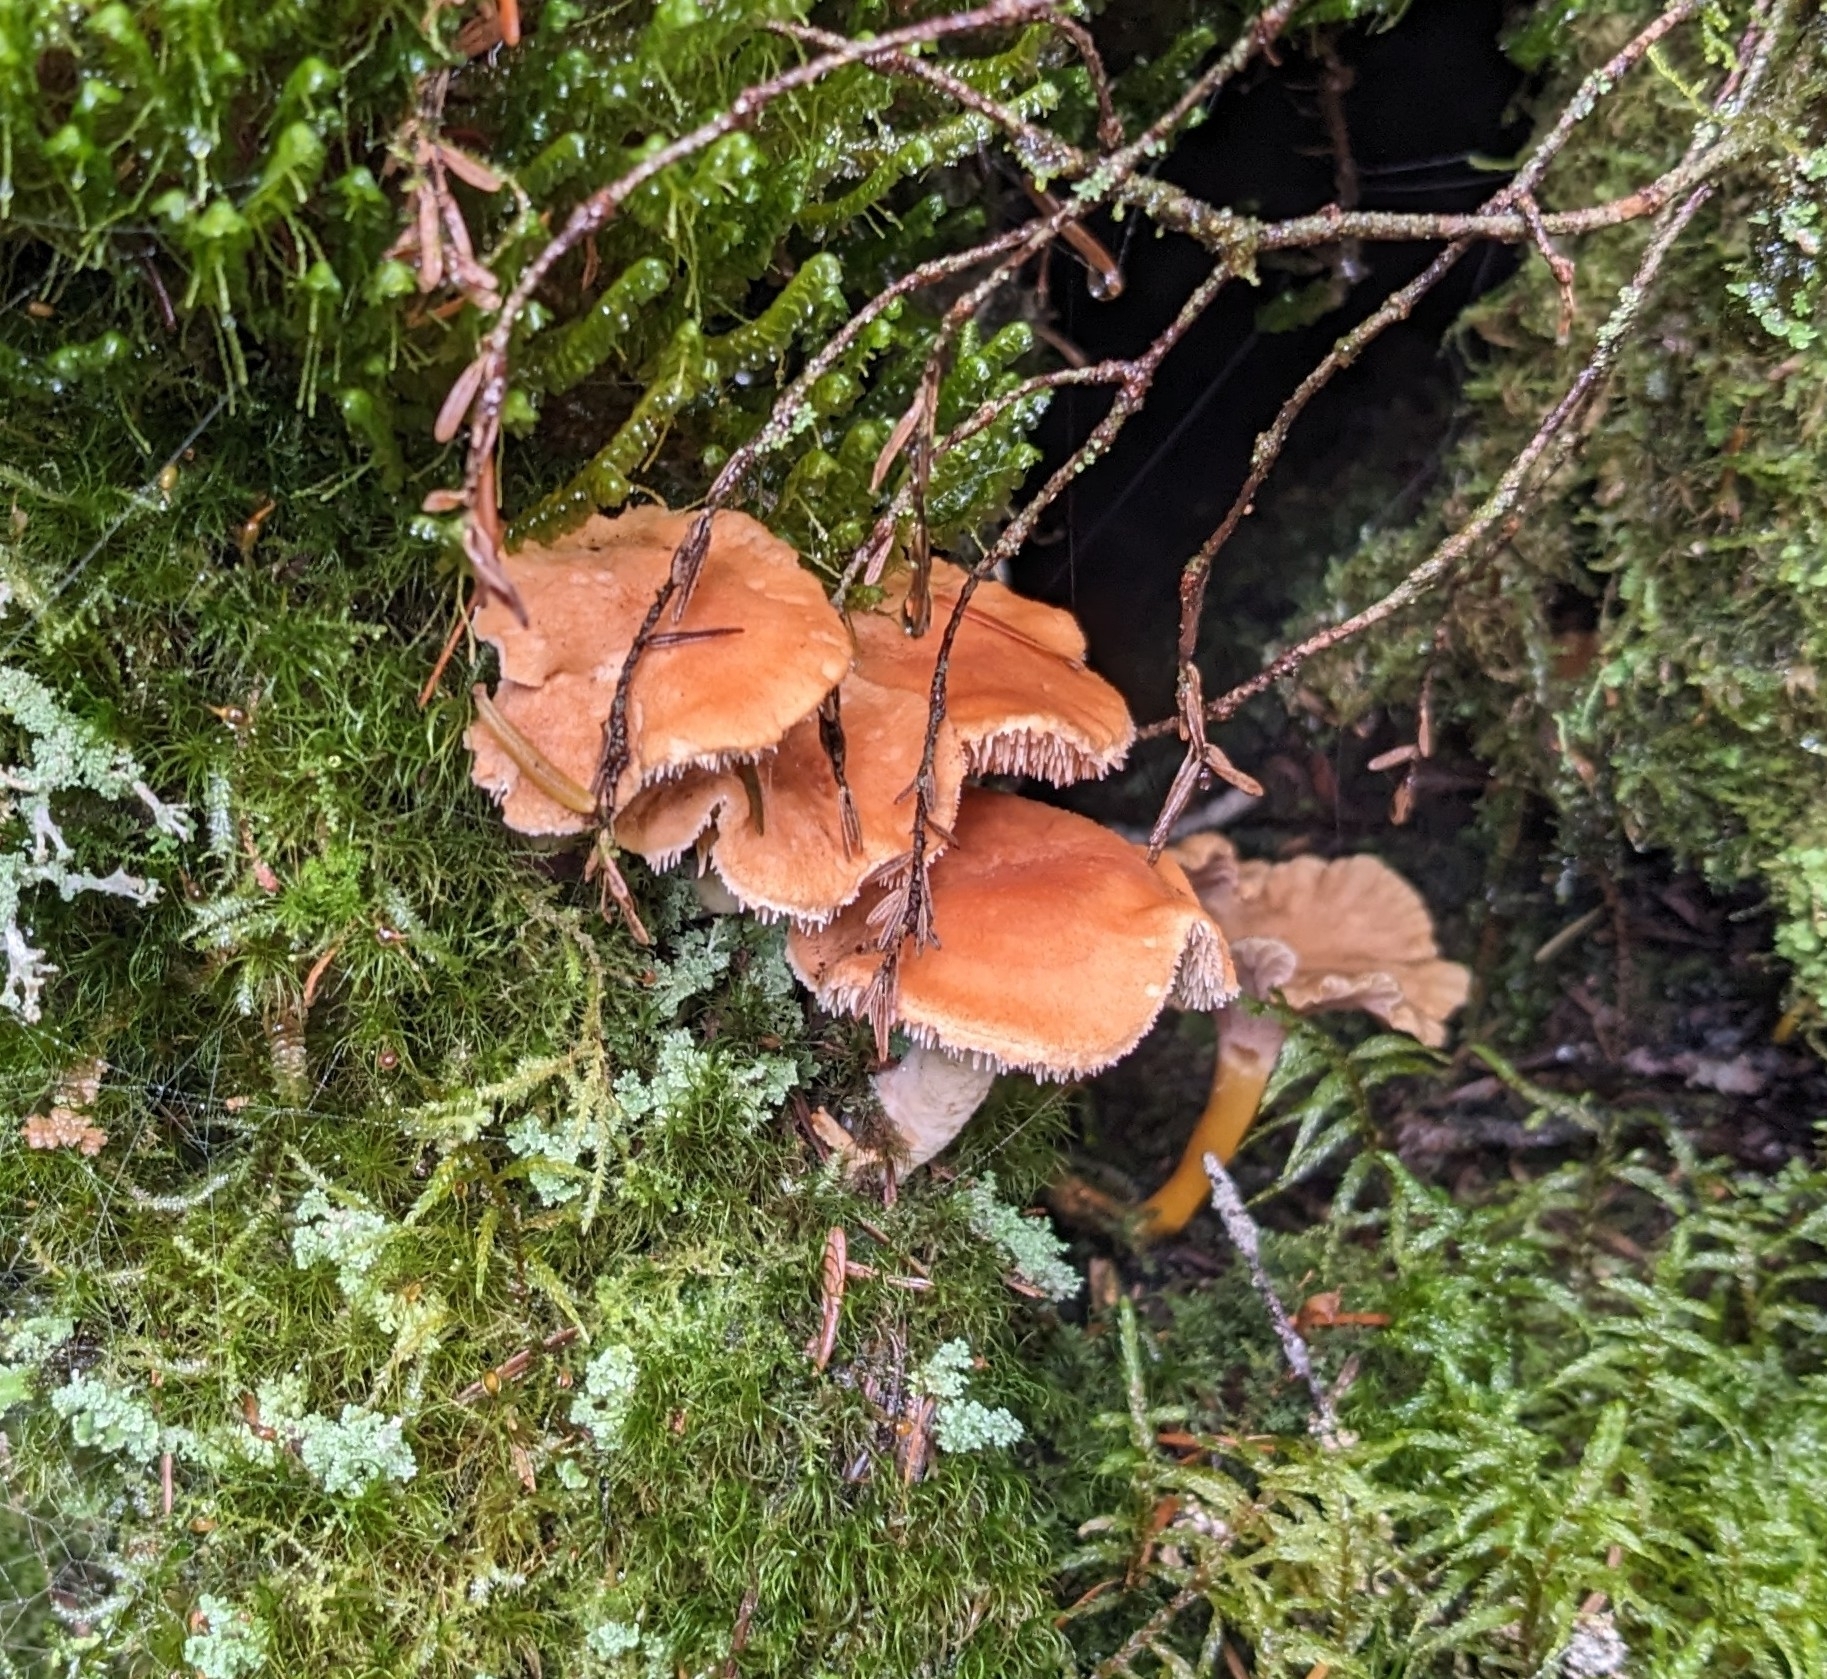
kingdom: Fungi
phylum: Basidiomycota
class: Agaricomycetes
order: Cantharellales
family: Hydnaceae
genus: Hydnum
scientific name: Hydnum umbilicatum
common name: Umbilicate hedgehog
